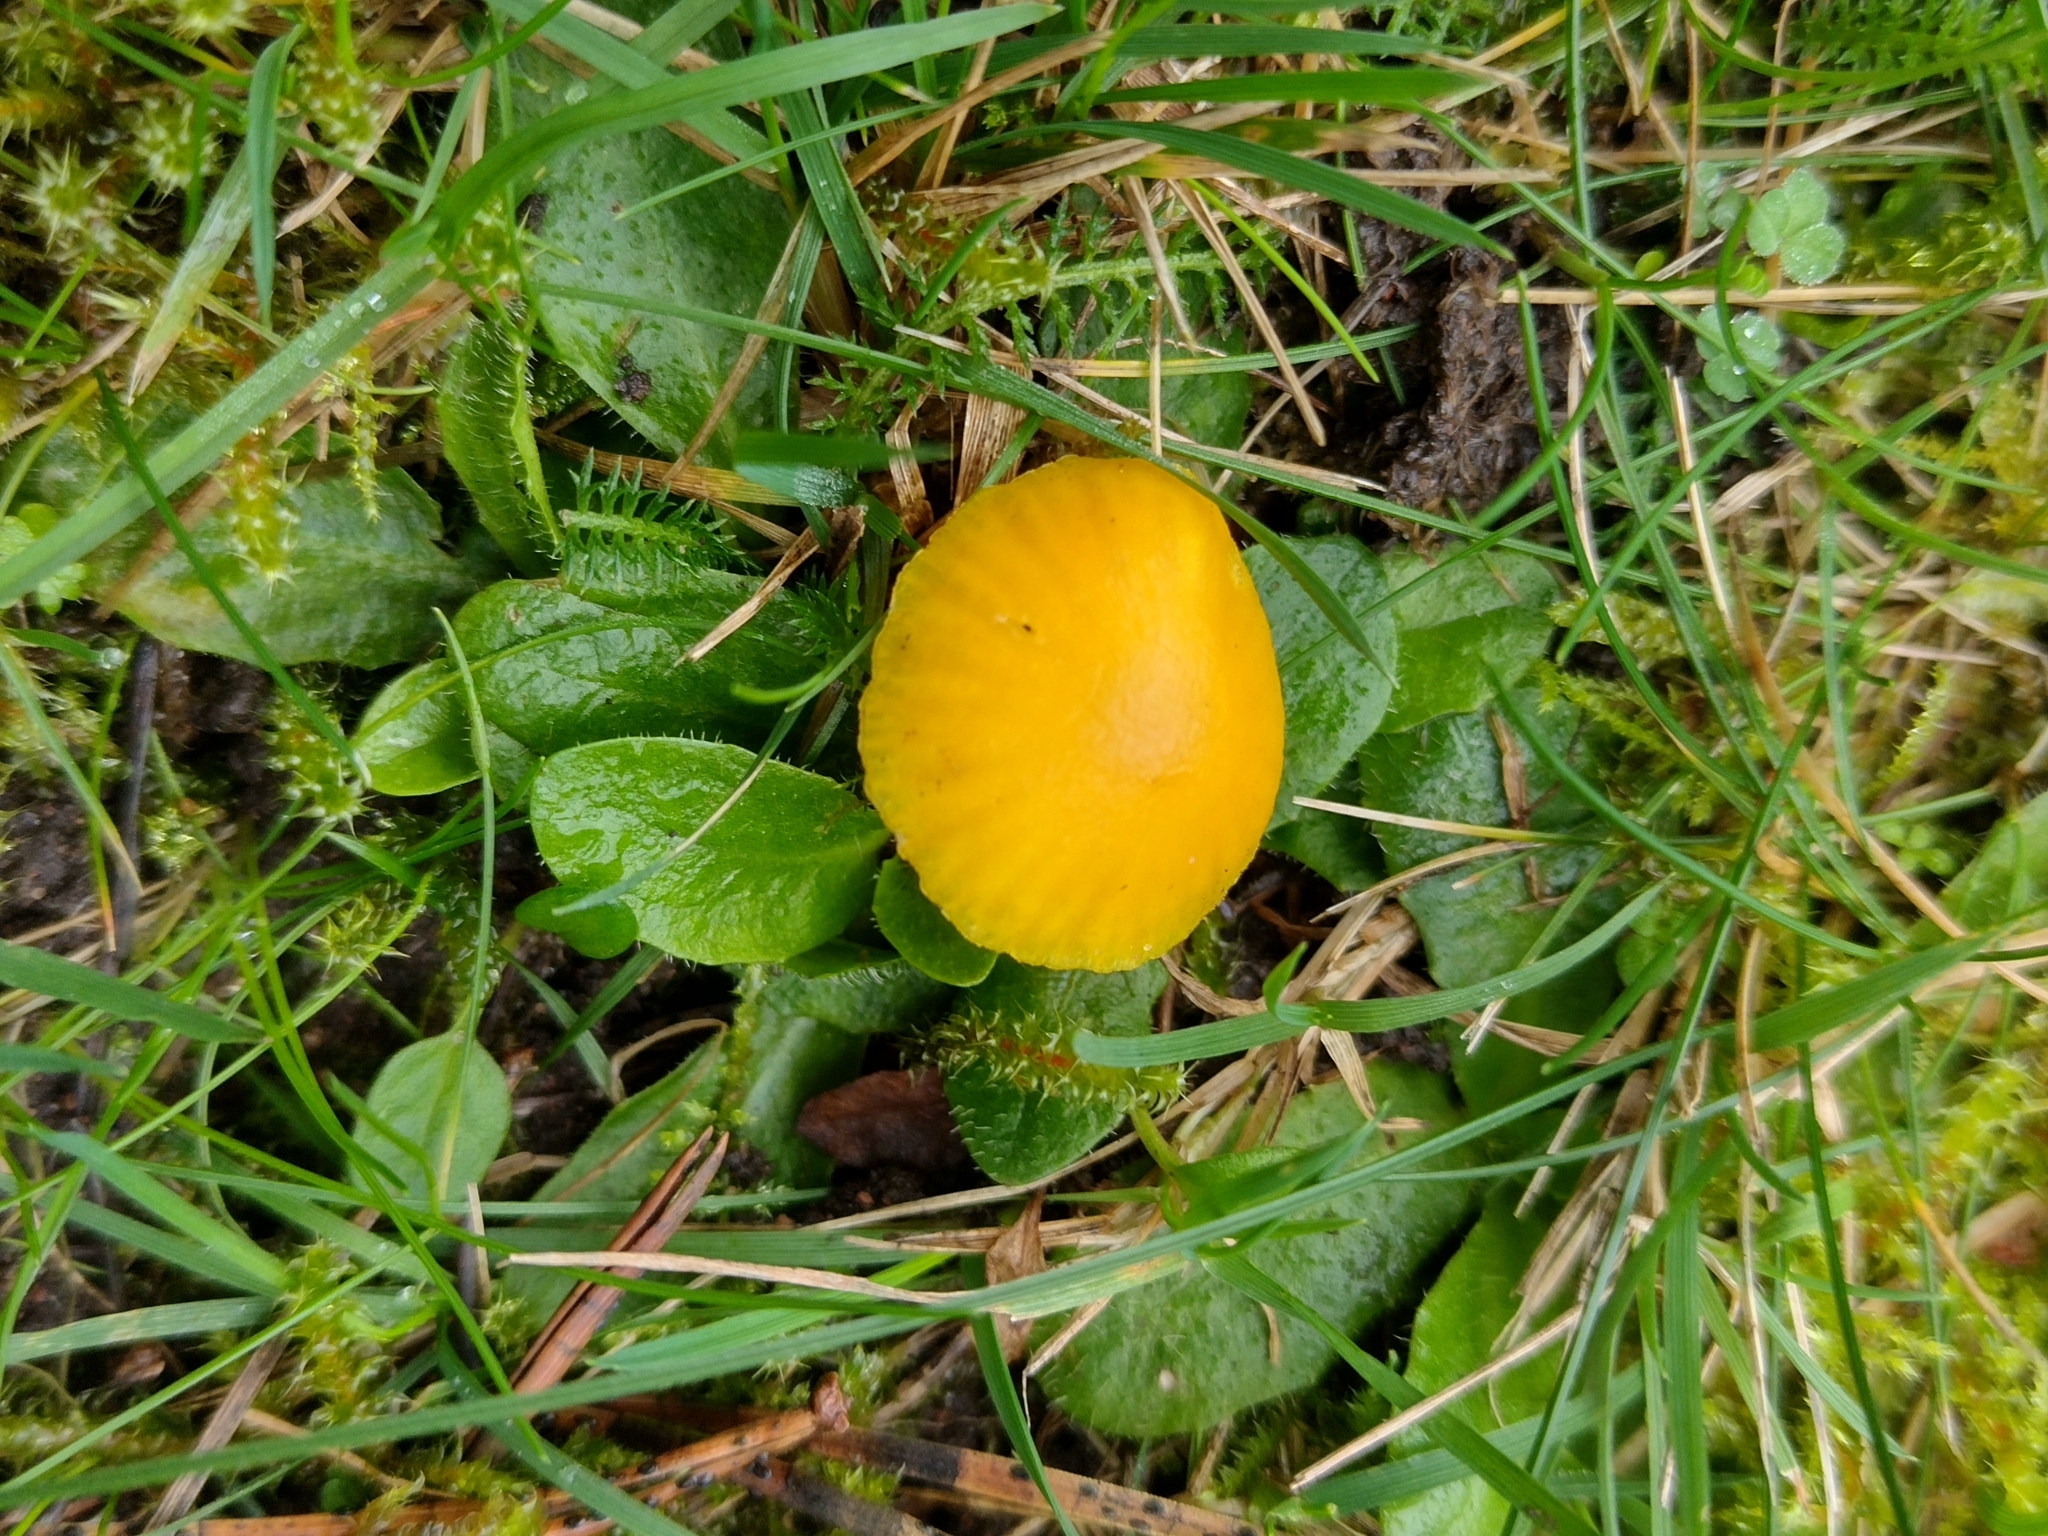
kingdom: Fungi
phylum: Basidiomycota
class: Agaricomycetes
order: Agaricales
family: Hygrophoraceae
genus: Hygrocybe
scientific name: Hygrocybe ceracea
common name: Butter waxcap
